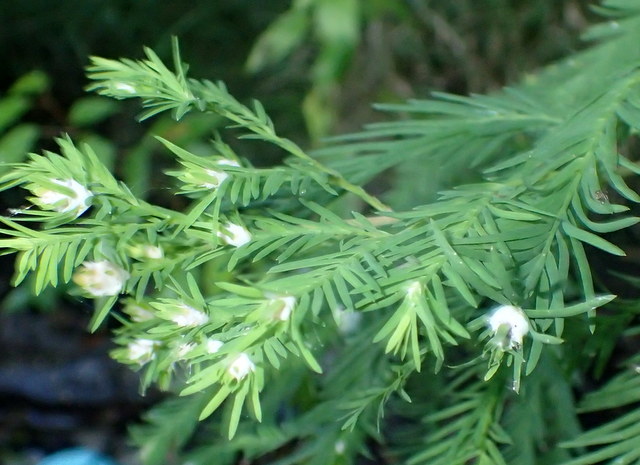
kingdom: Animalia
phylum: Arthropoda
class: Insecta
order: Diptera
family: Cecidomyiidae
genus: Taxodiomyia
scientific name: Taxodiomyia cupressiananassa
